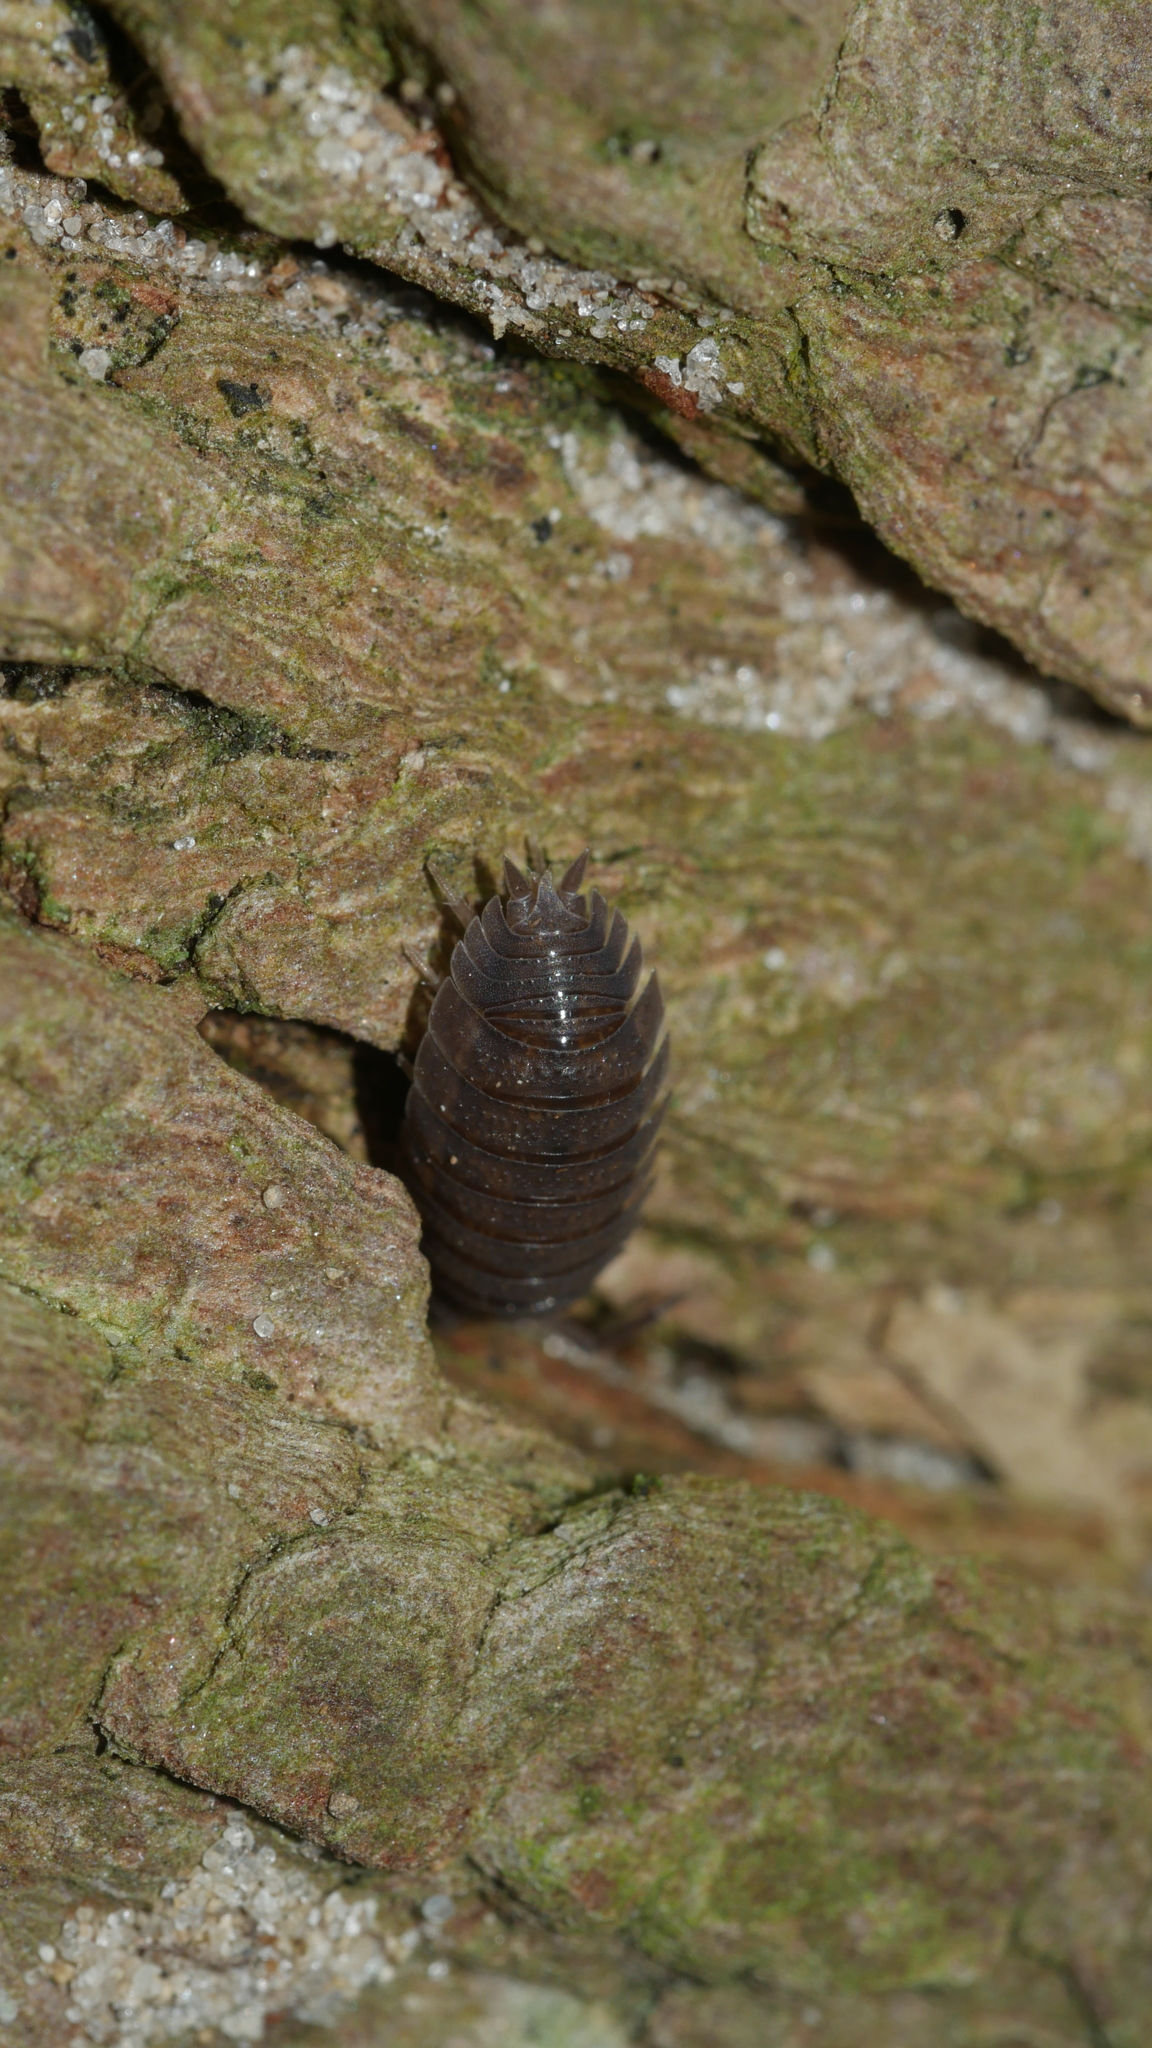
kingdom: Animalia
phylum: Arthropoda
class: Malacostraca
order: Isopoda
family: Porcellionidae
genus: Porcellio
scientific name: Porcellio scaber
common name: Common rough woodlouse
